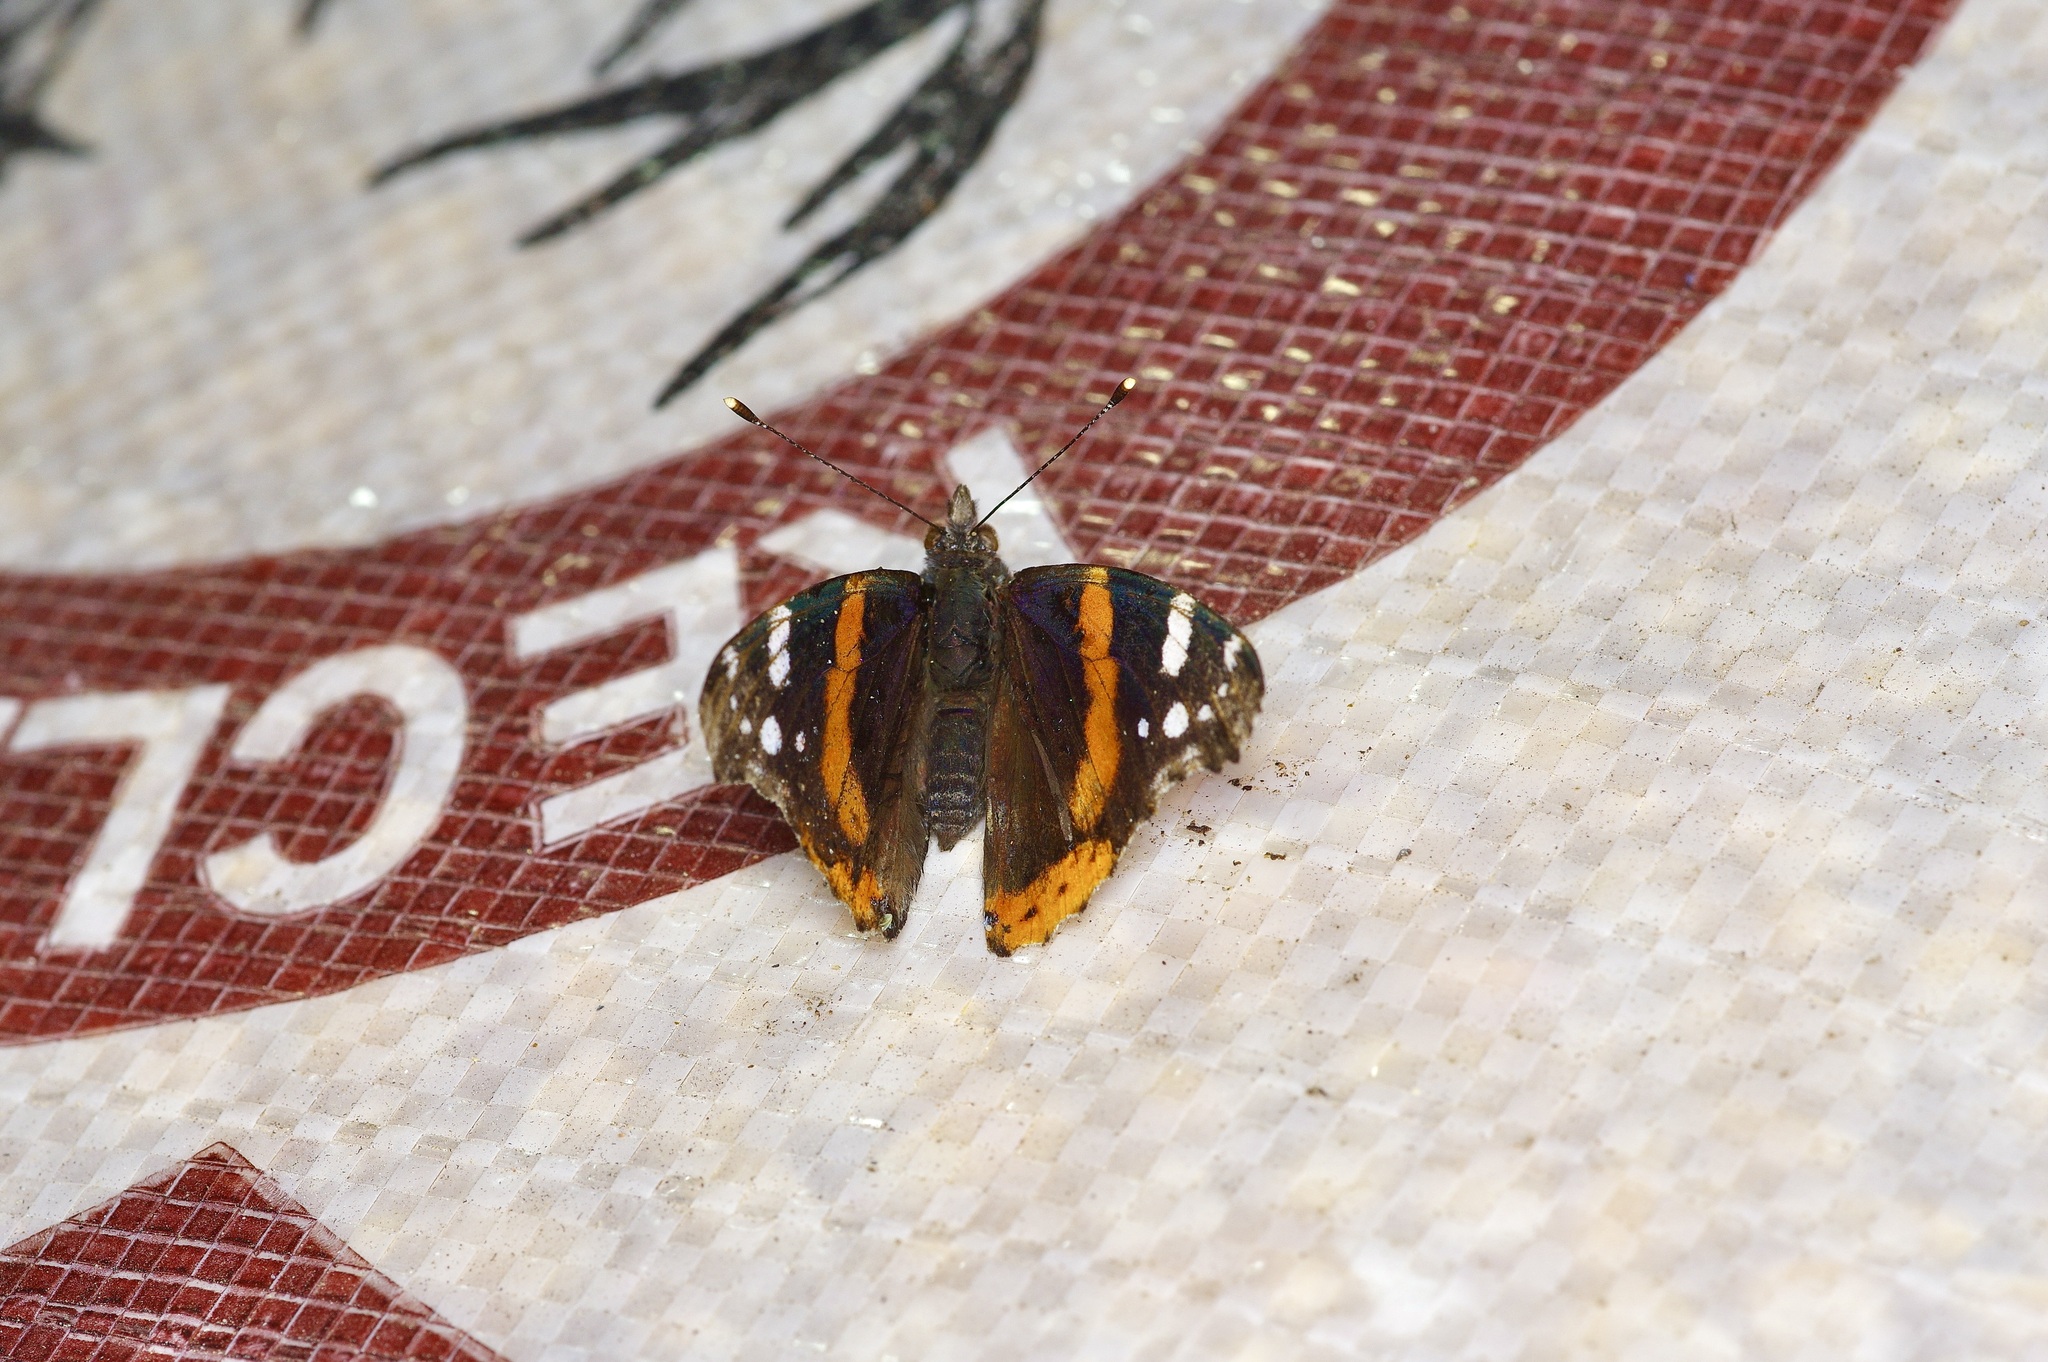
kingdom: Animalia
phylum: Arthropoda
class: Insecta
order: Lepidoptera
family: Nymphalidae
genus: Vanessa
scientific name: Vanessa atalanta
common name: Red admiral
